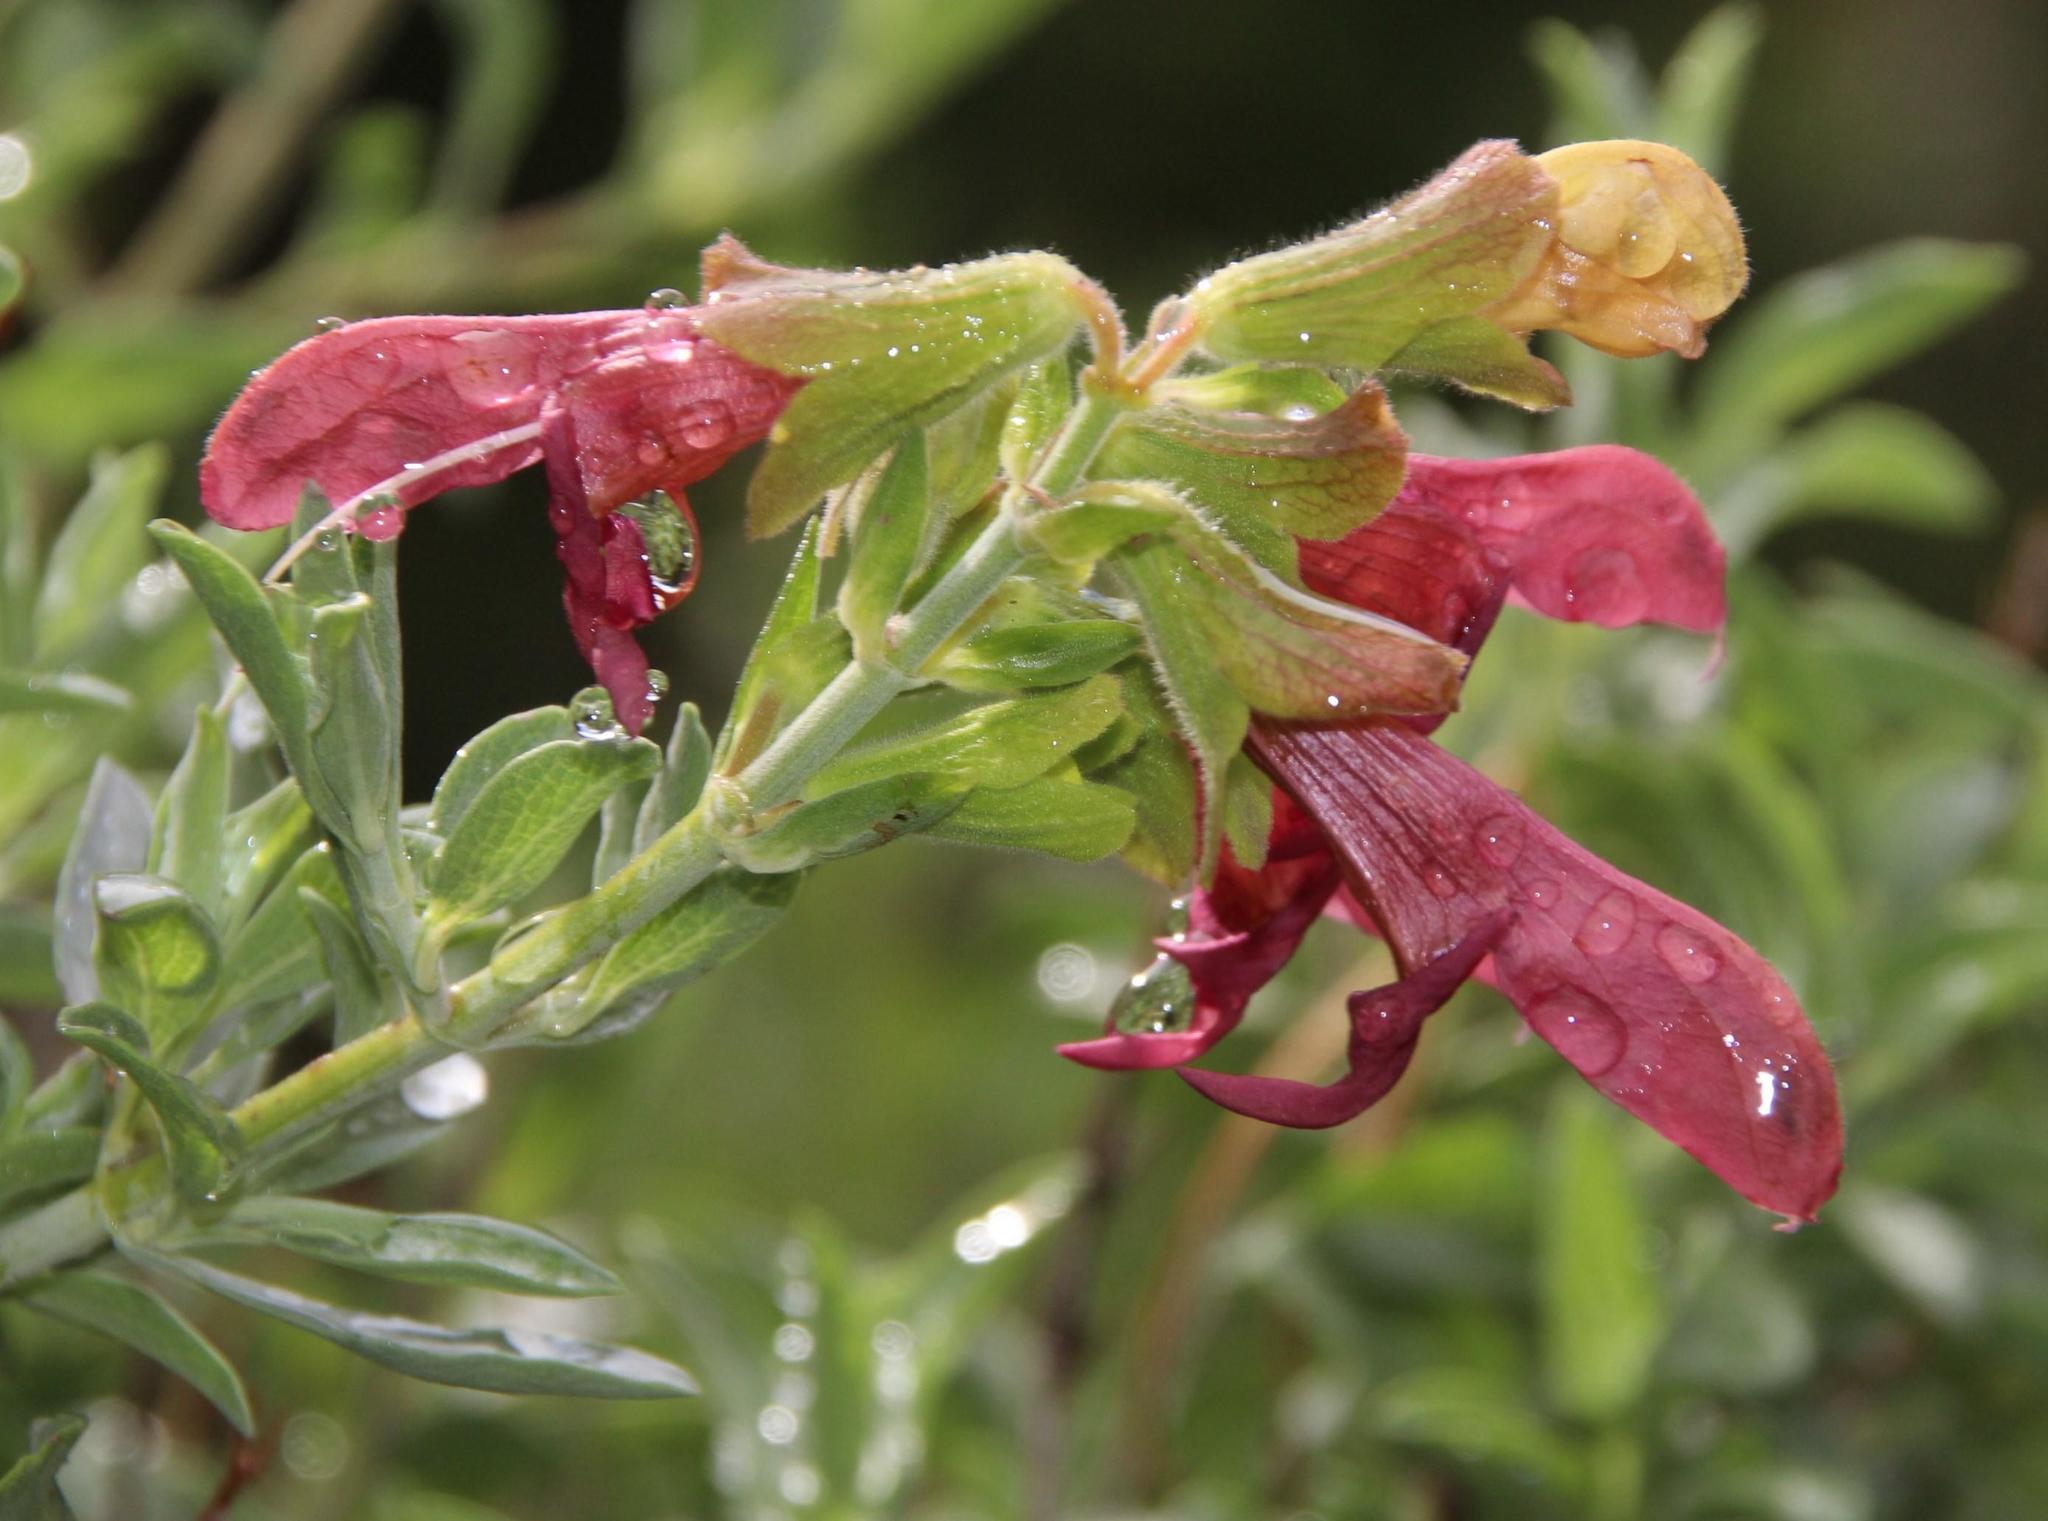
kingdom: Plantae
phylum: Tracheophyta
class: Magnoliopsida
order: Lamiales
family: Lamiaceae
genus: Salvia
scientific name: Salvia lanceolata
